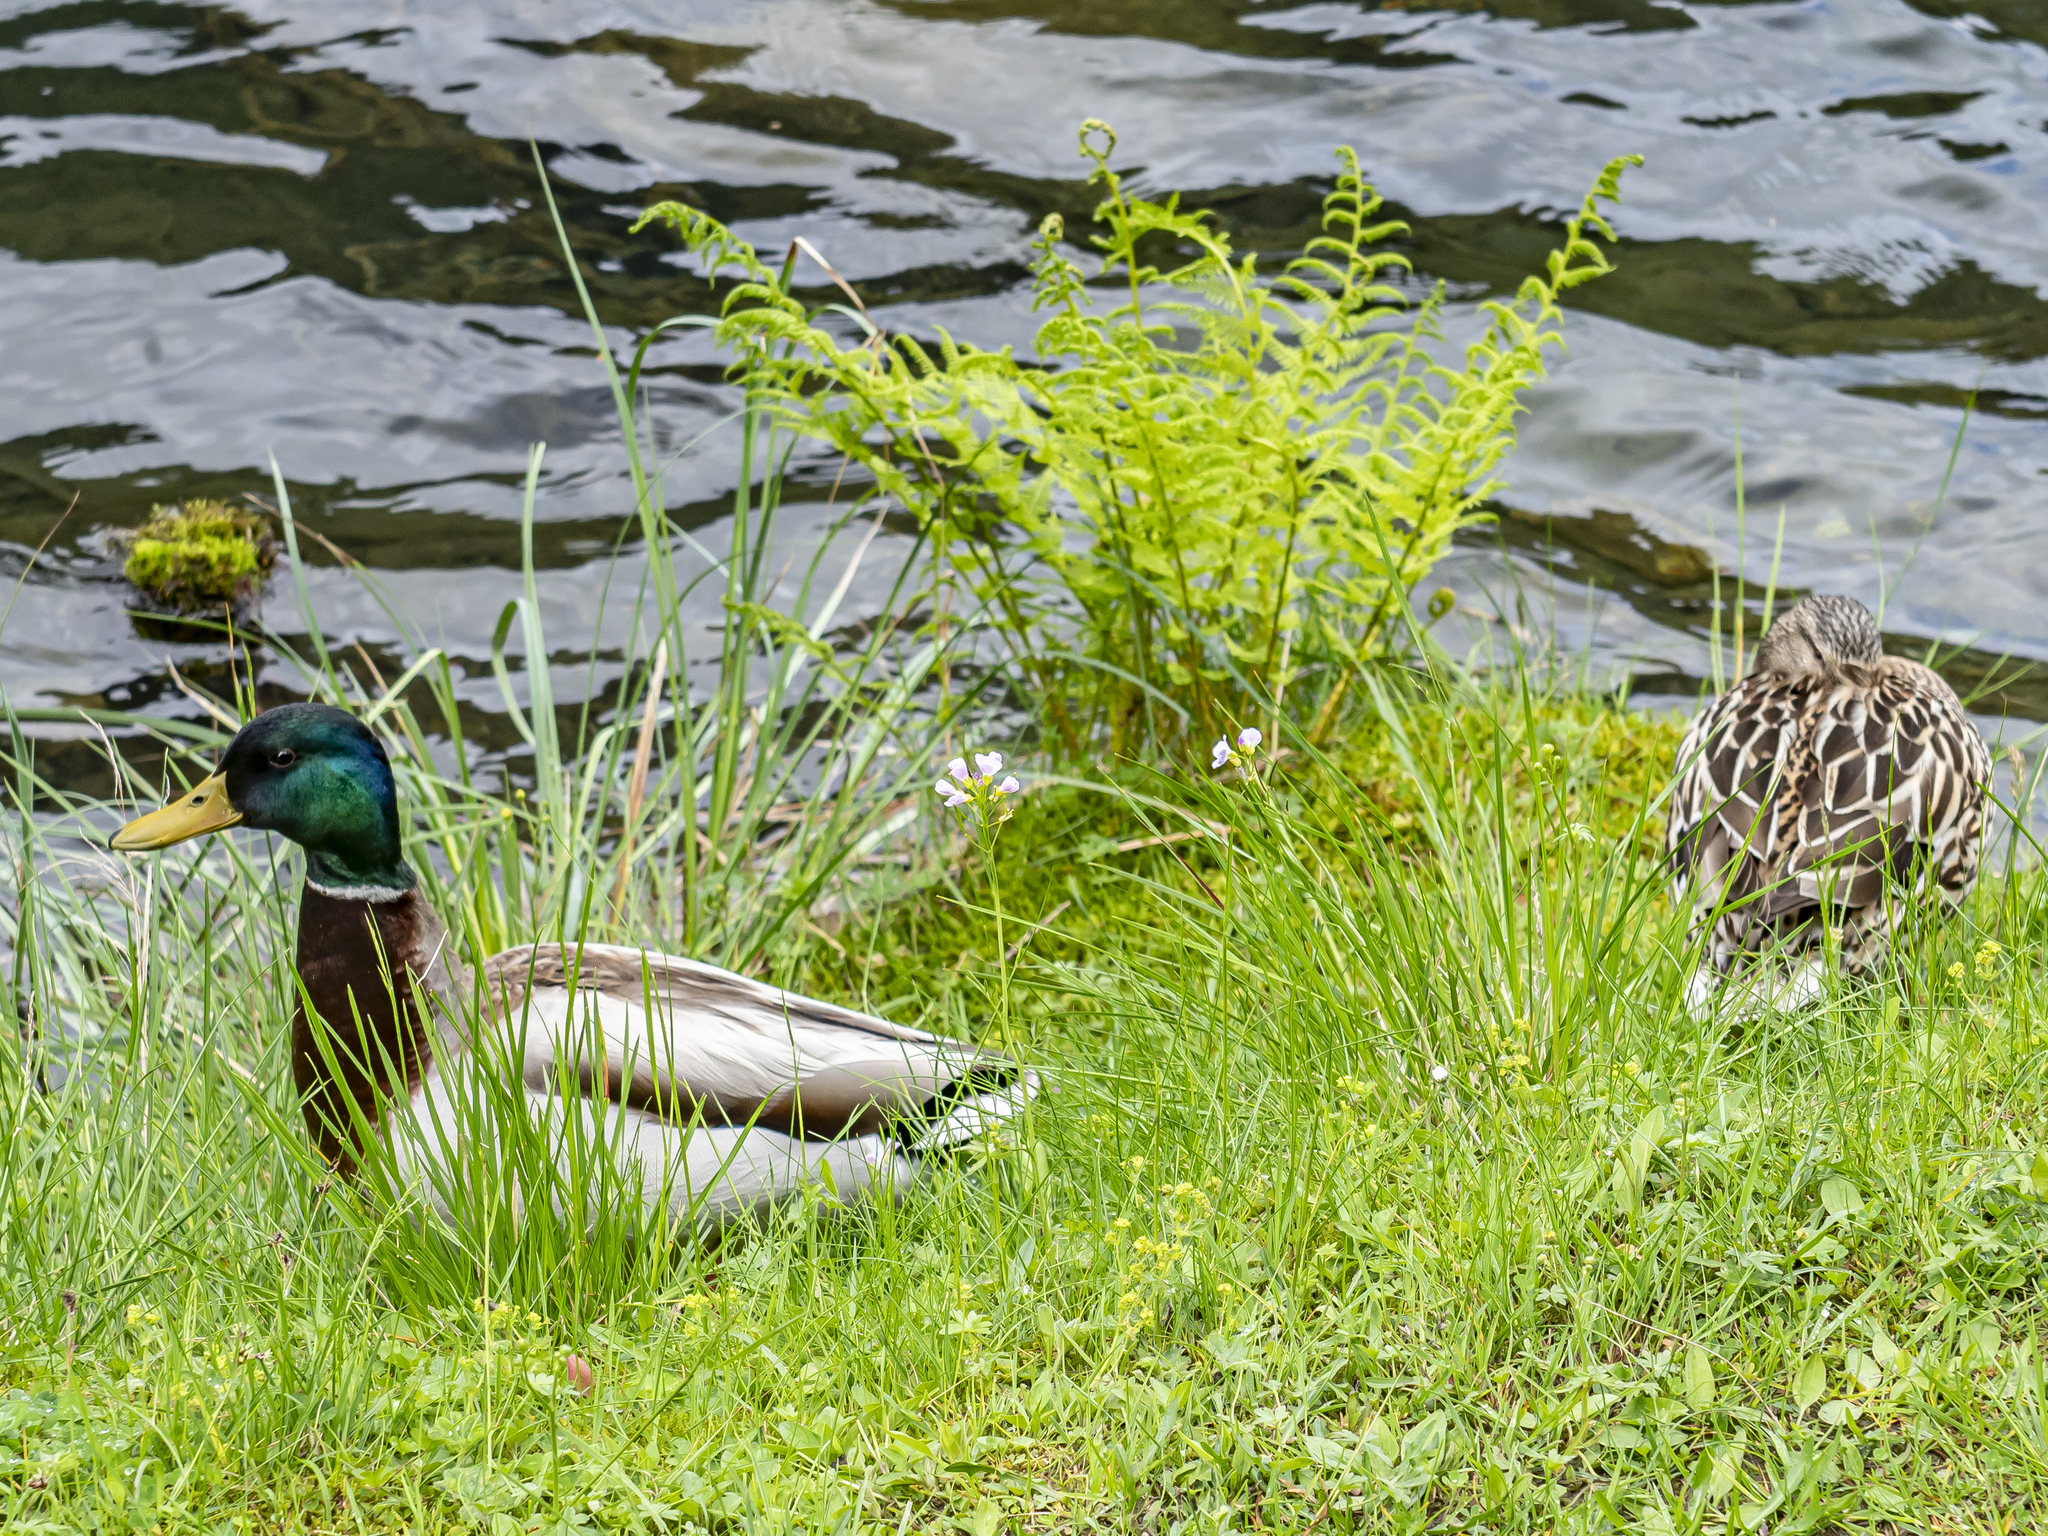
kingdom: Animalia
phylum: Chordata
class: Aves
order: Anseriformes
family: Anatidae
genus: Anas
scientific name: Anas platyrhynchos
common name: Mallard
